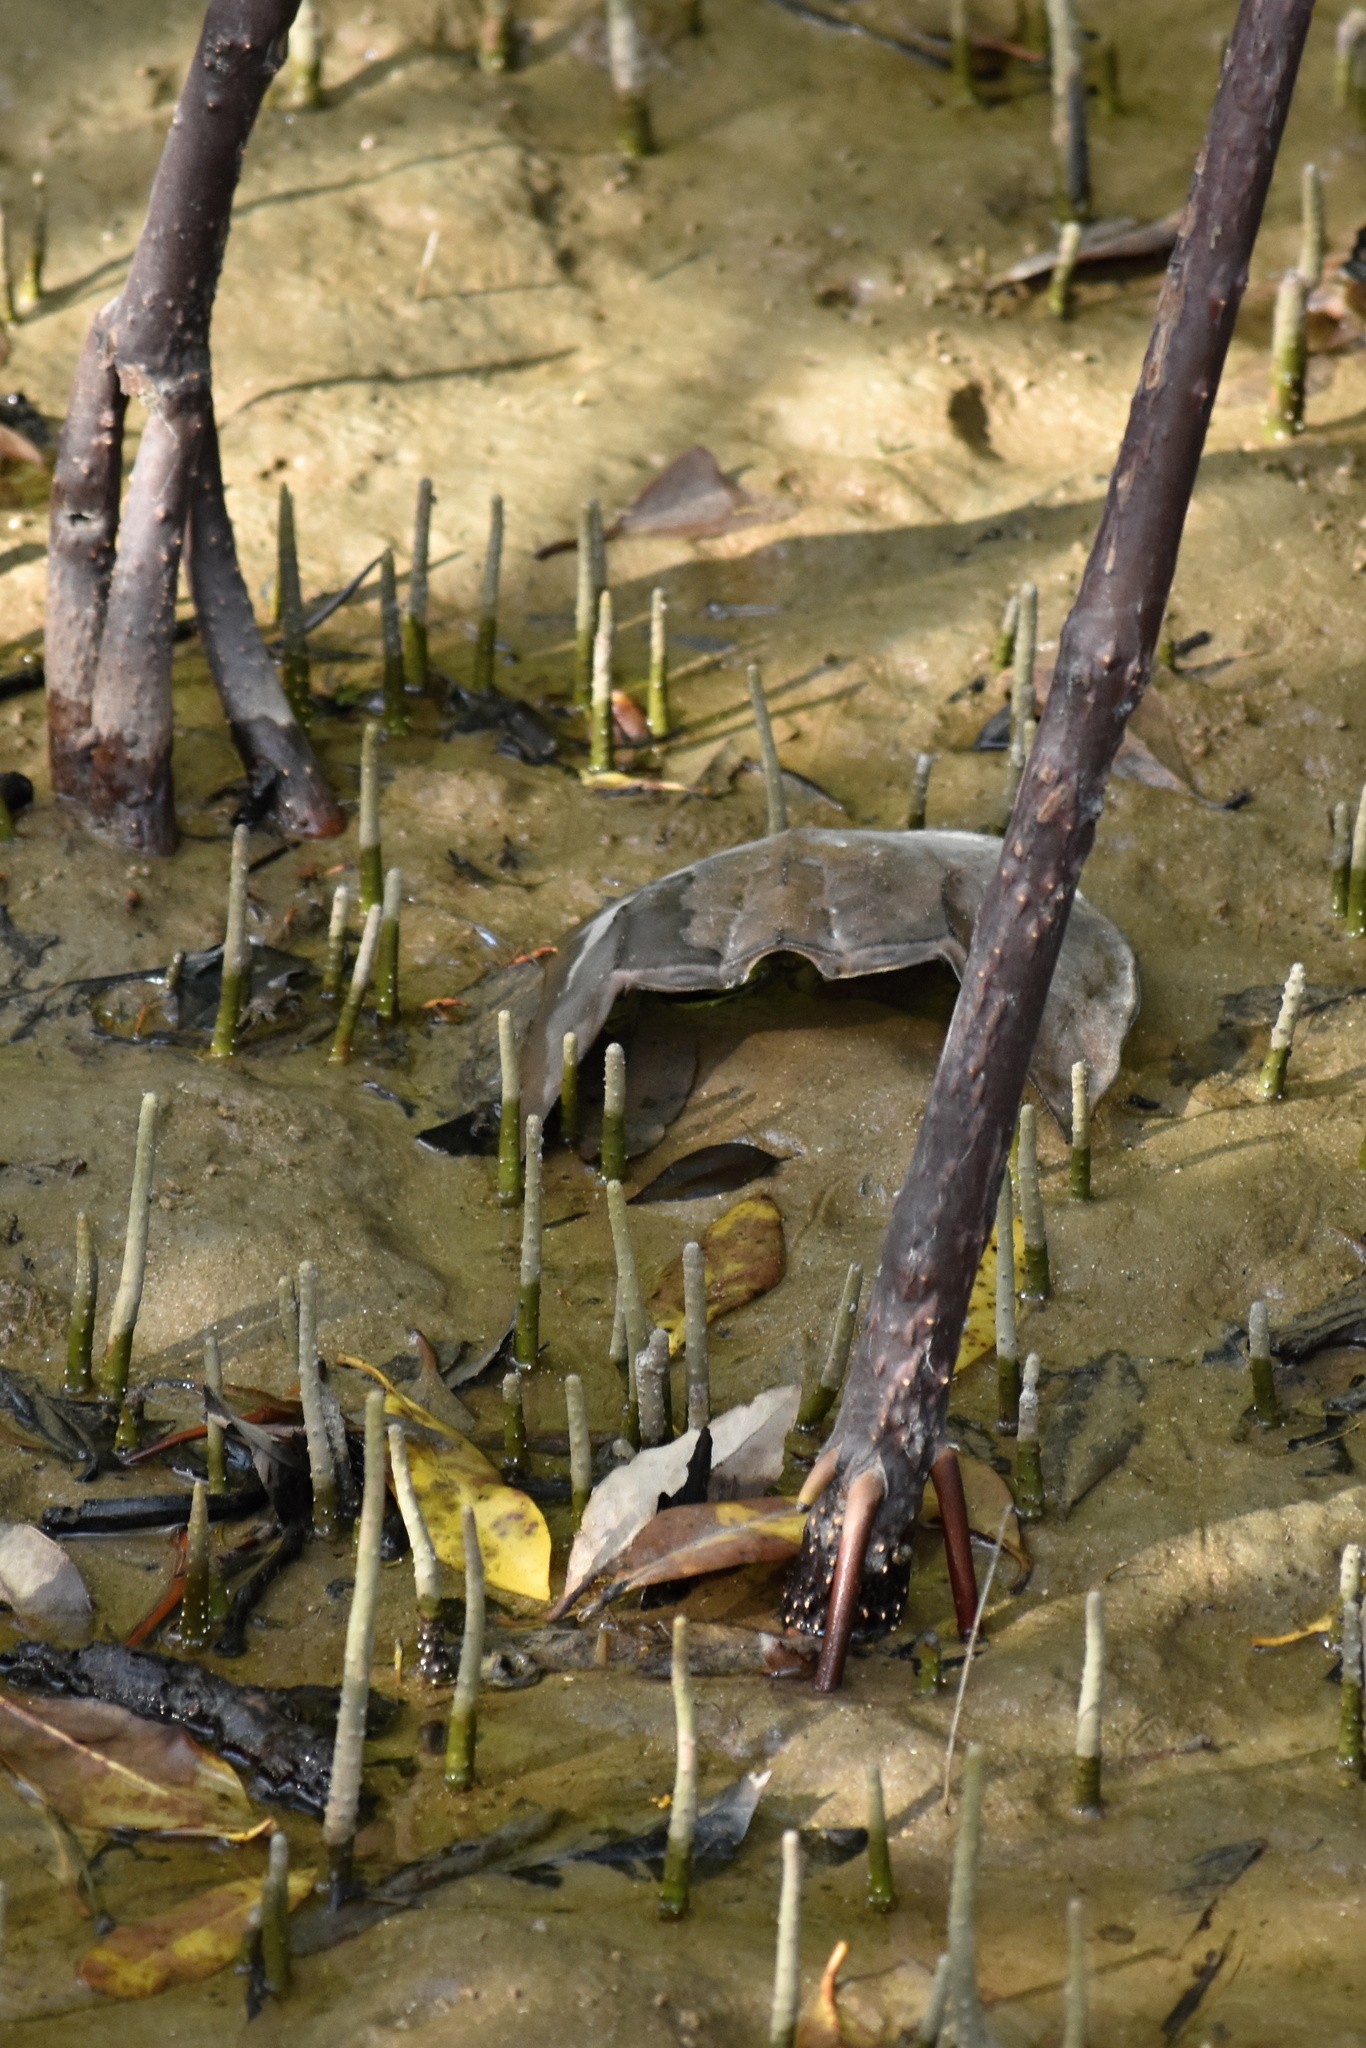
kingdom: Animalia
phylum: Arthropoda
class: Merostomata
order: Xiphosurida
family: Limulidae
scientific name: Limulidae
